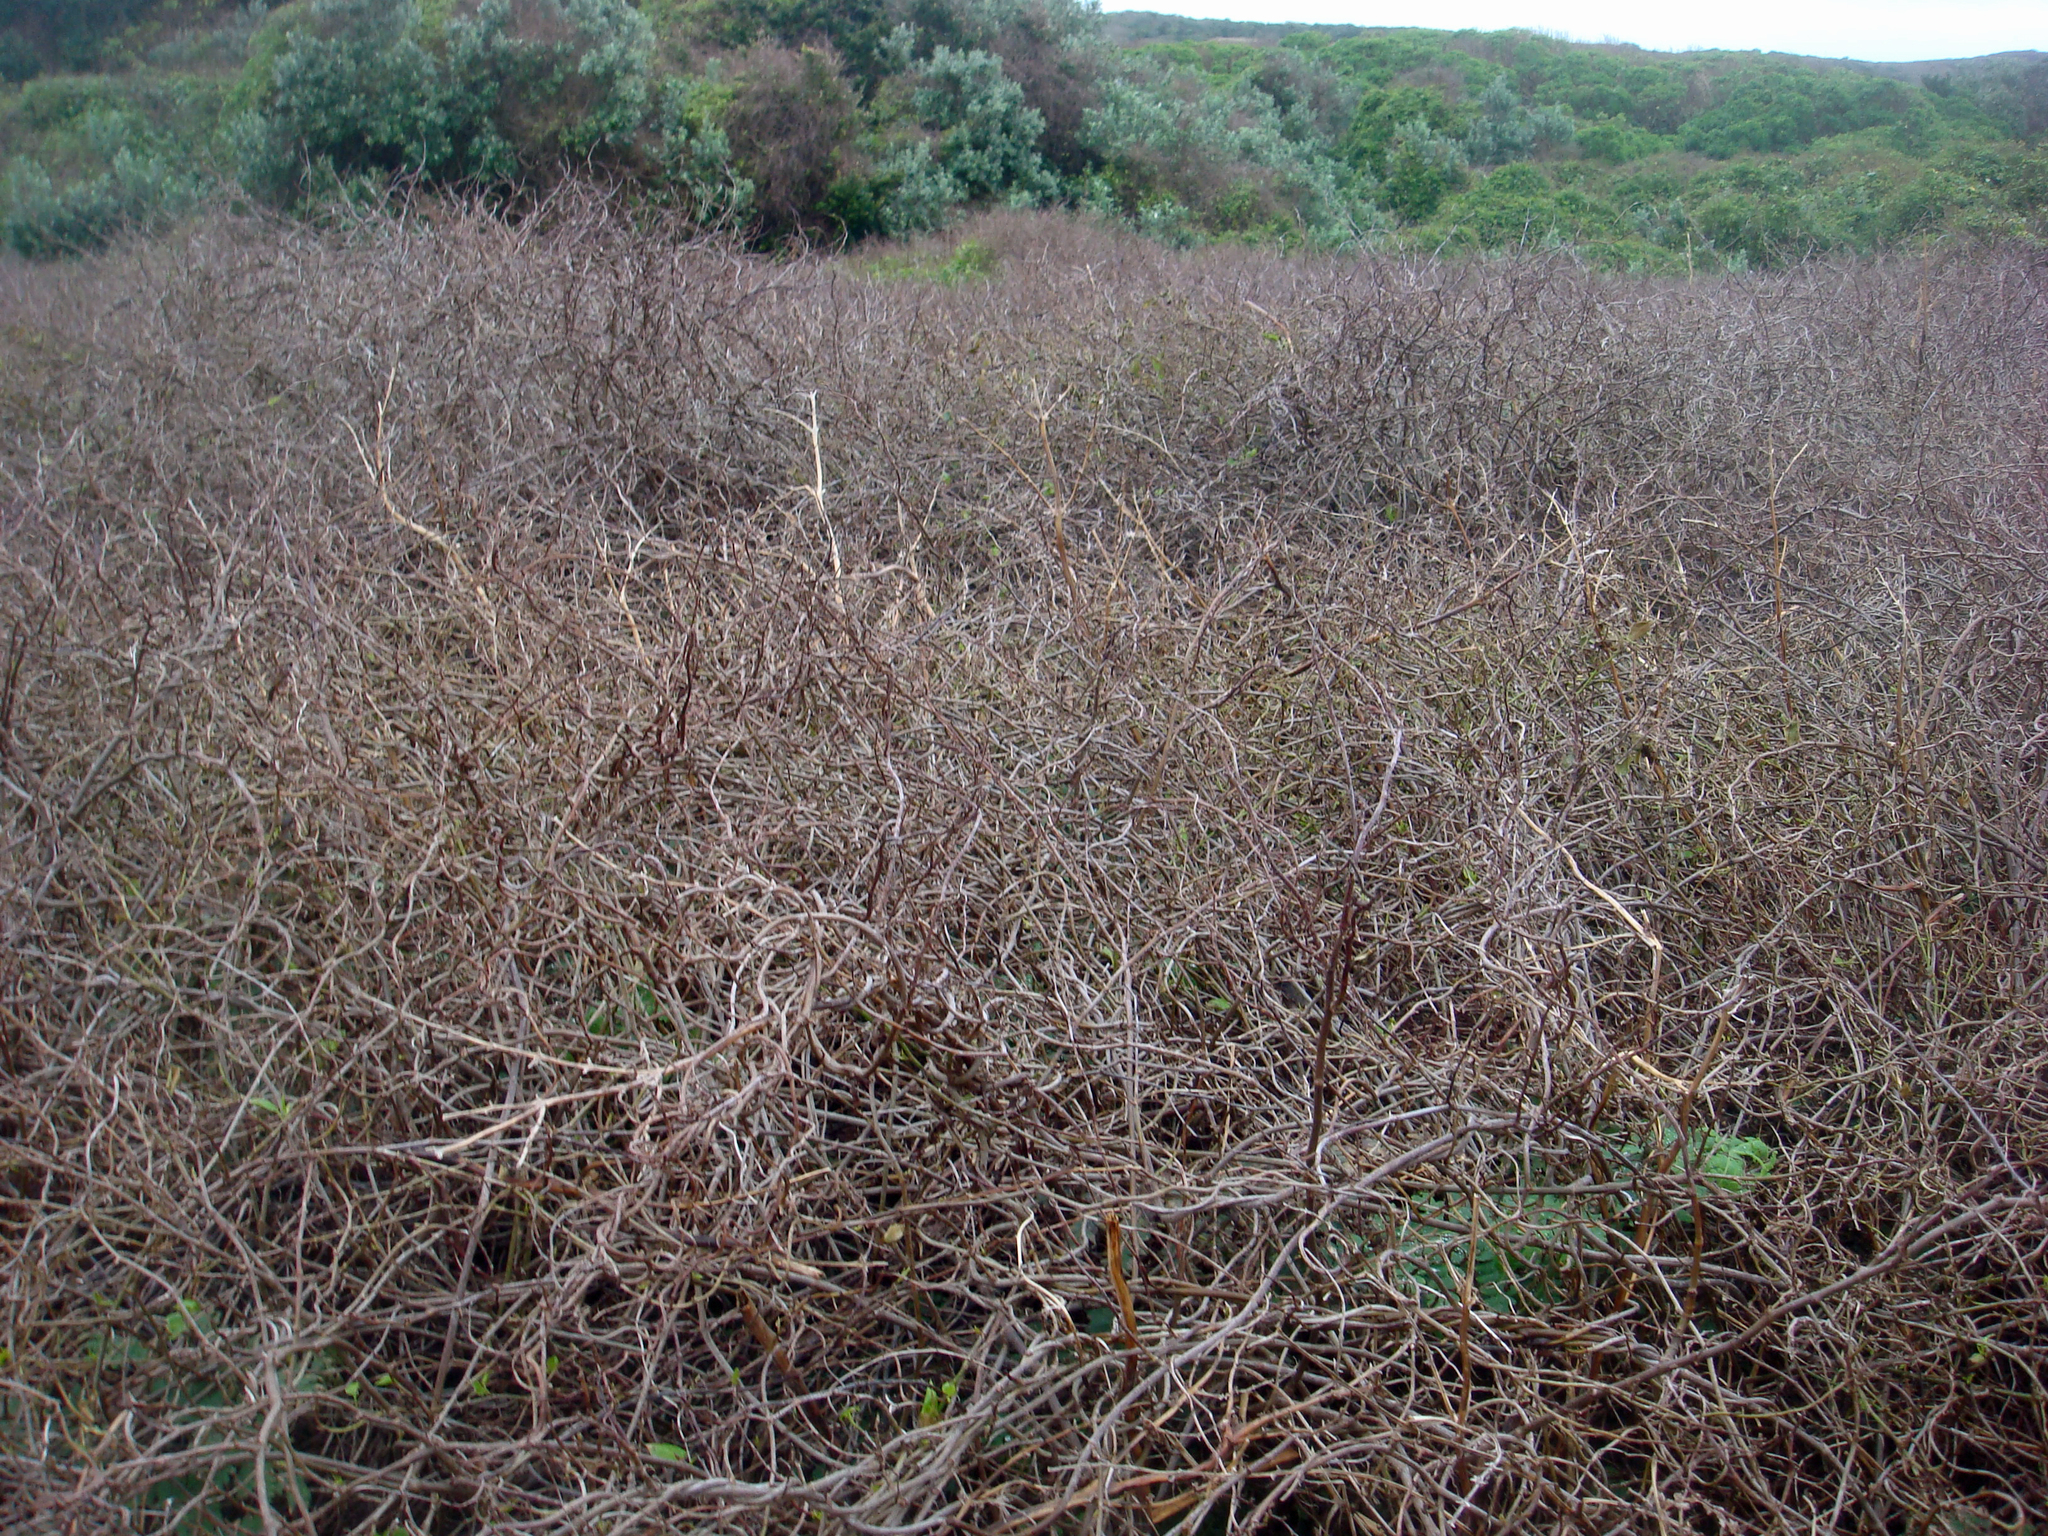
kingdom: Plantae
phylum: Tracheophyta
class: Magnoliopsida
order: Caryophyllales
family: Polygonaceae
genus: Muehlenbeckia
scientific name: Muehlenbeckia australis
